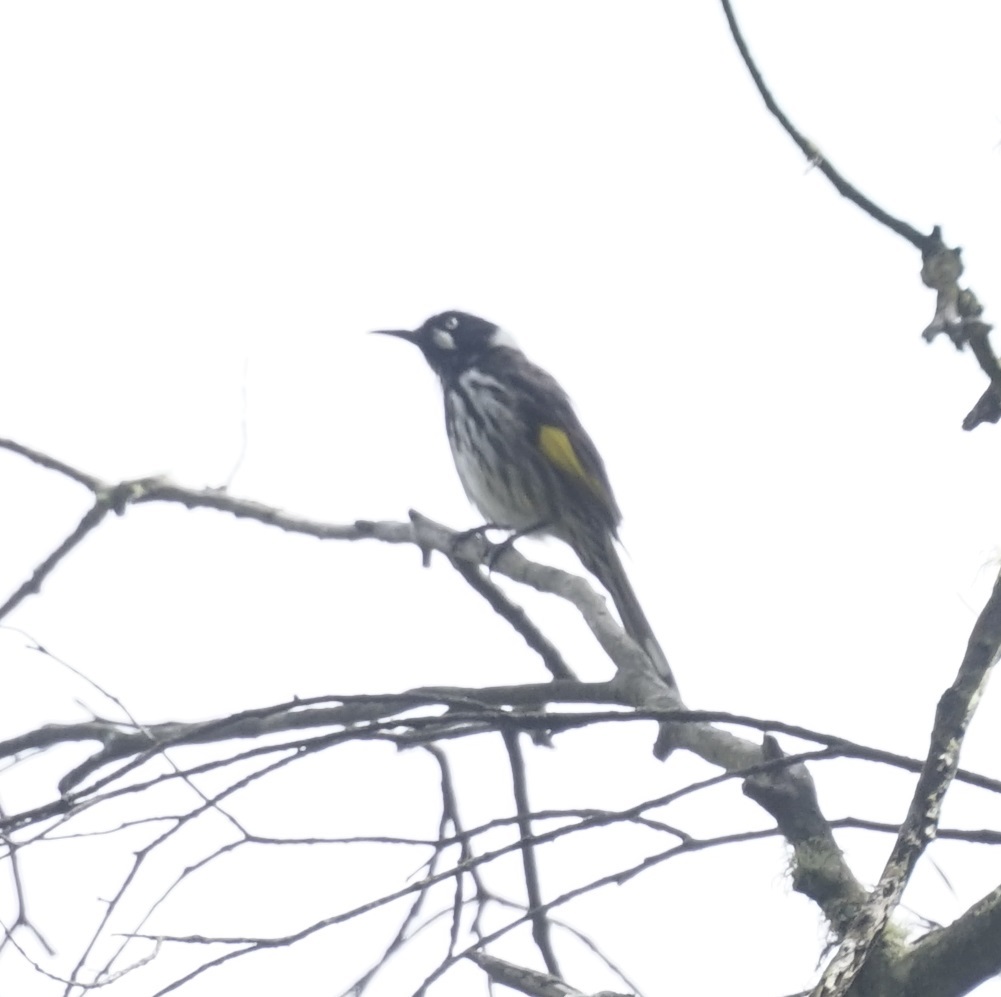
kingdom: Animalia
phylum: Chordata
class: Aves
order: Passeriformes
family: Meliphagidae
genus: Phylidonyris
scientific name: Phylidonyris novaehollandiae
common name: New holland honeyeater
